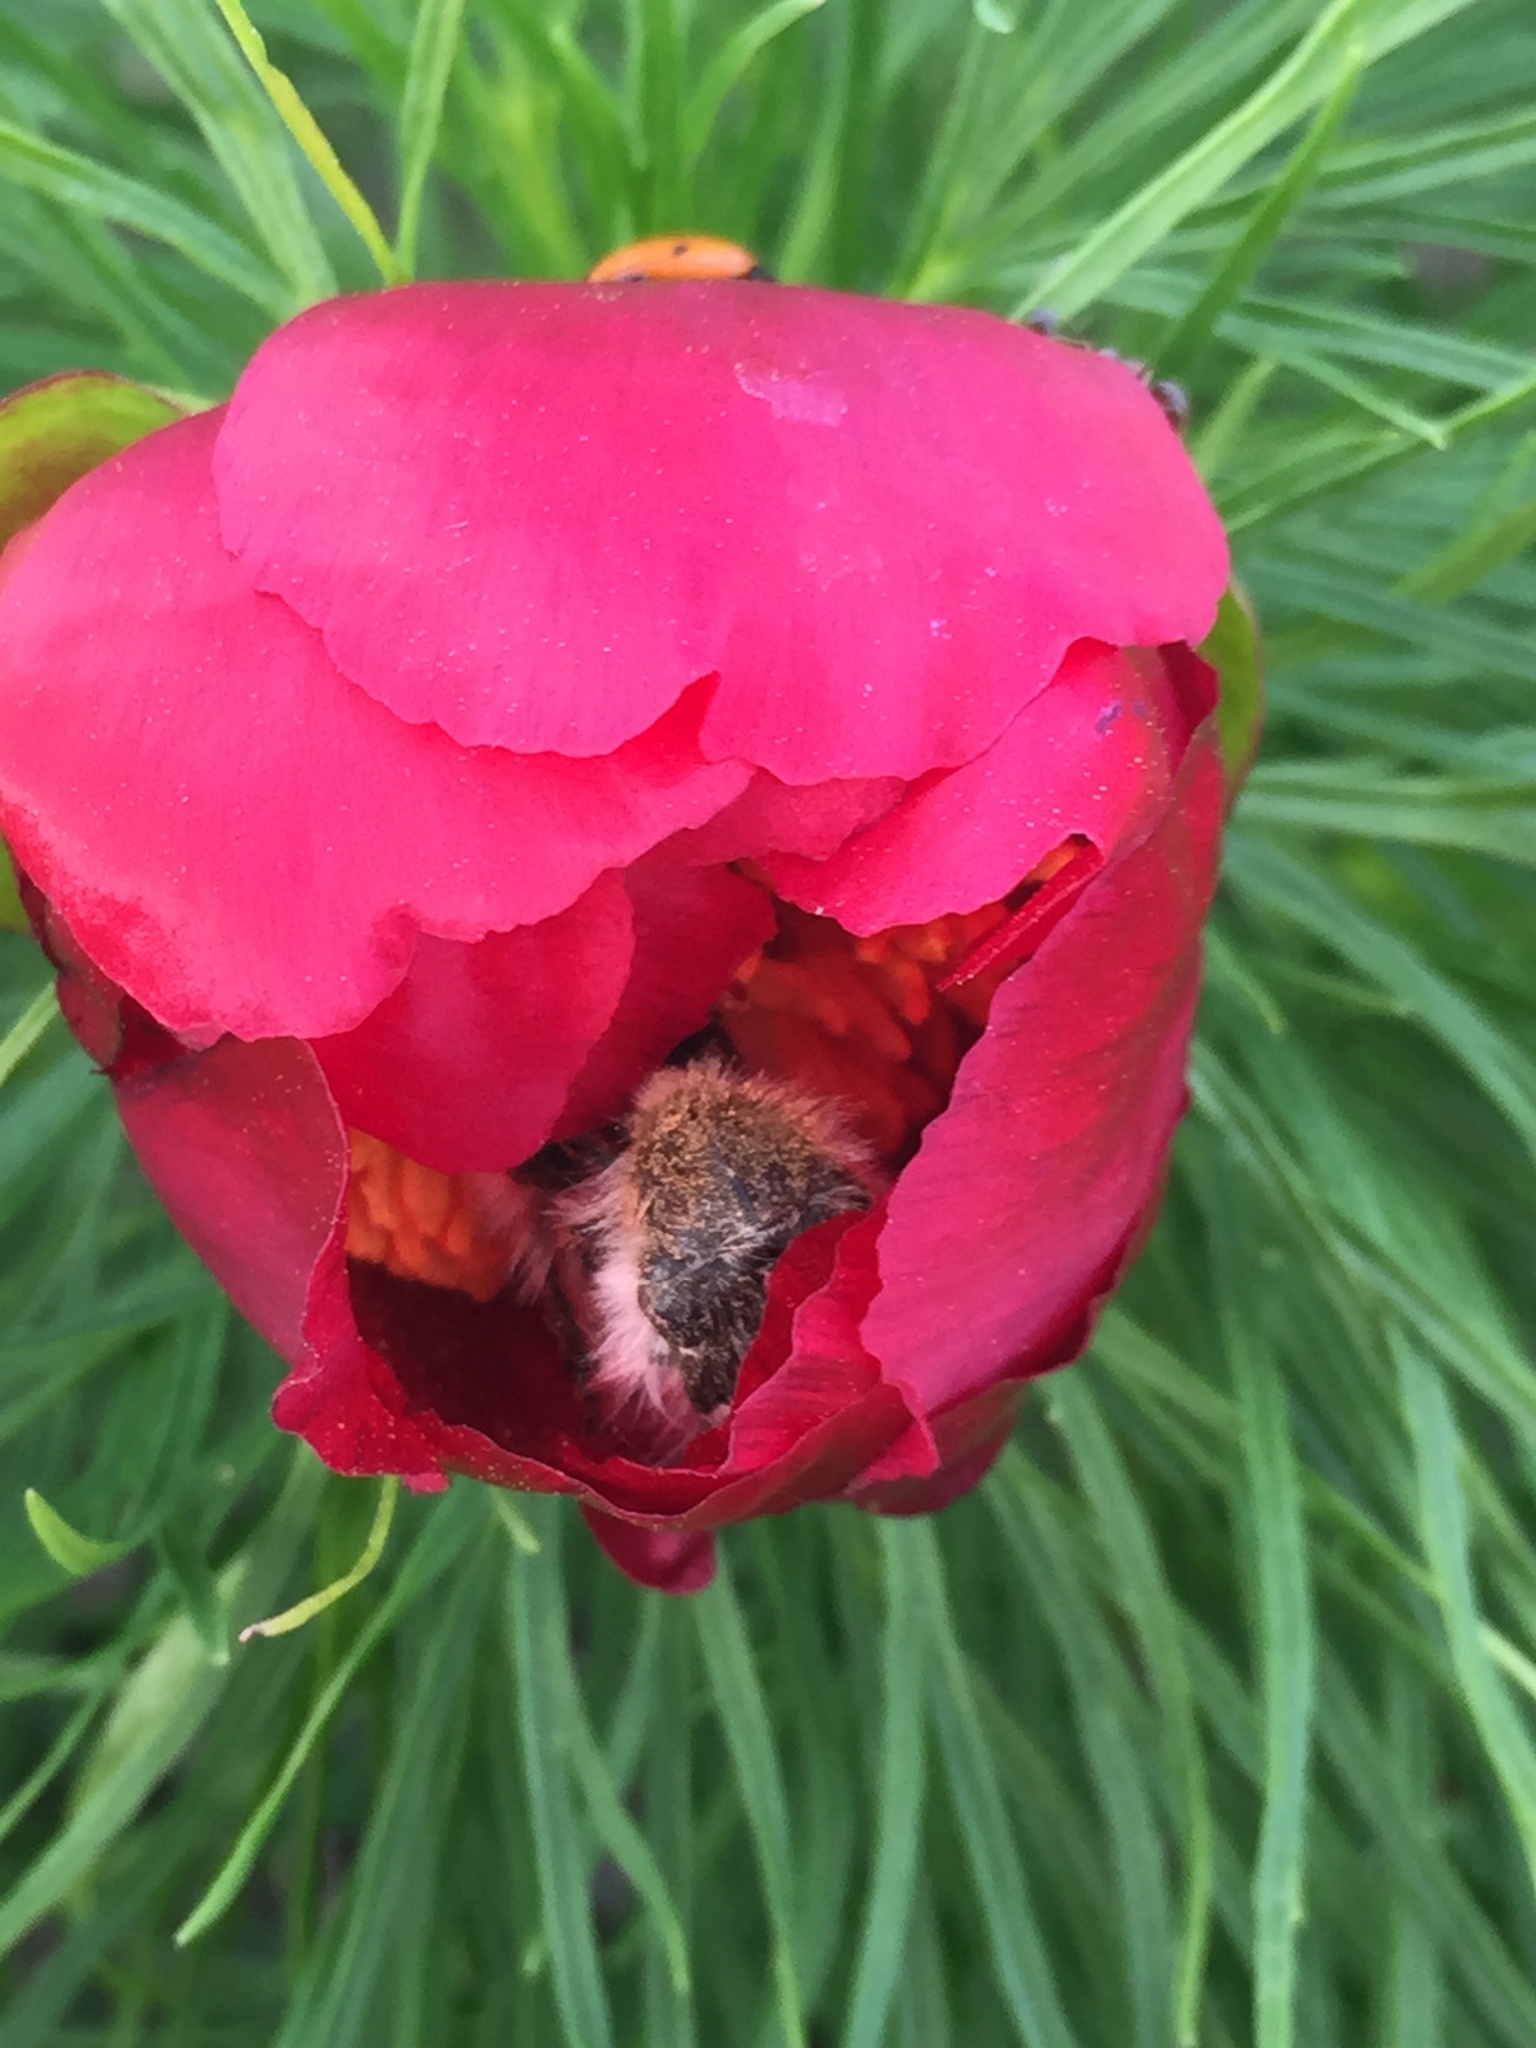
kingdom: Plantae
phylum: Tracheophyta
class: Magnoliopsida
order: Saxifragales
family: Paeoniaceae
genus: Paeonia
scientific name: Paeonia tenuifolia
